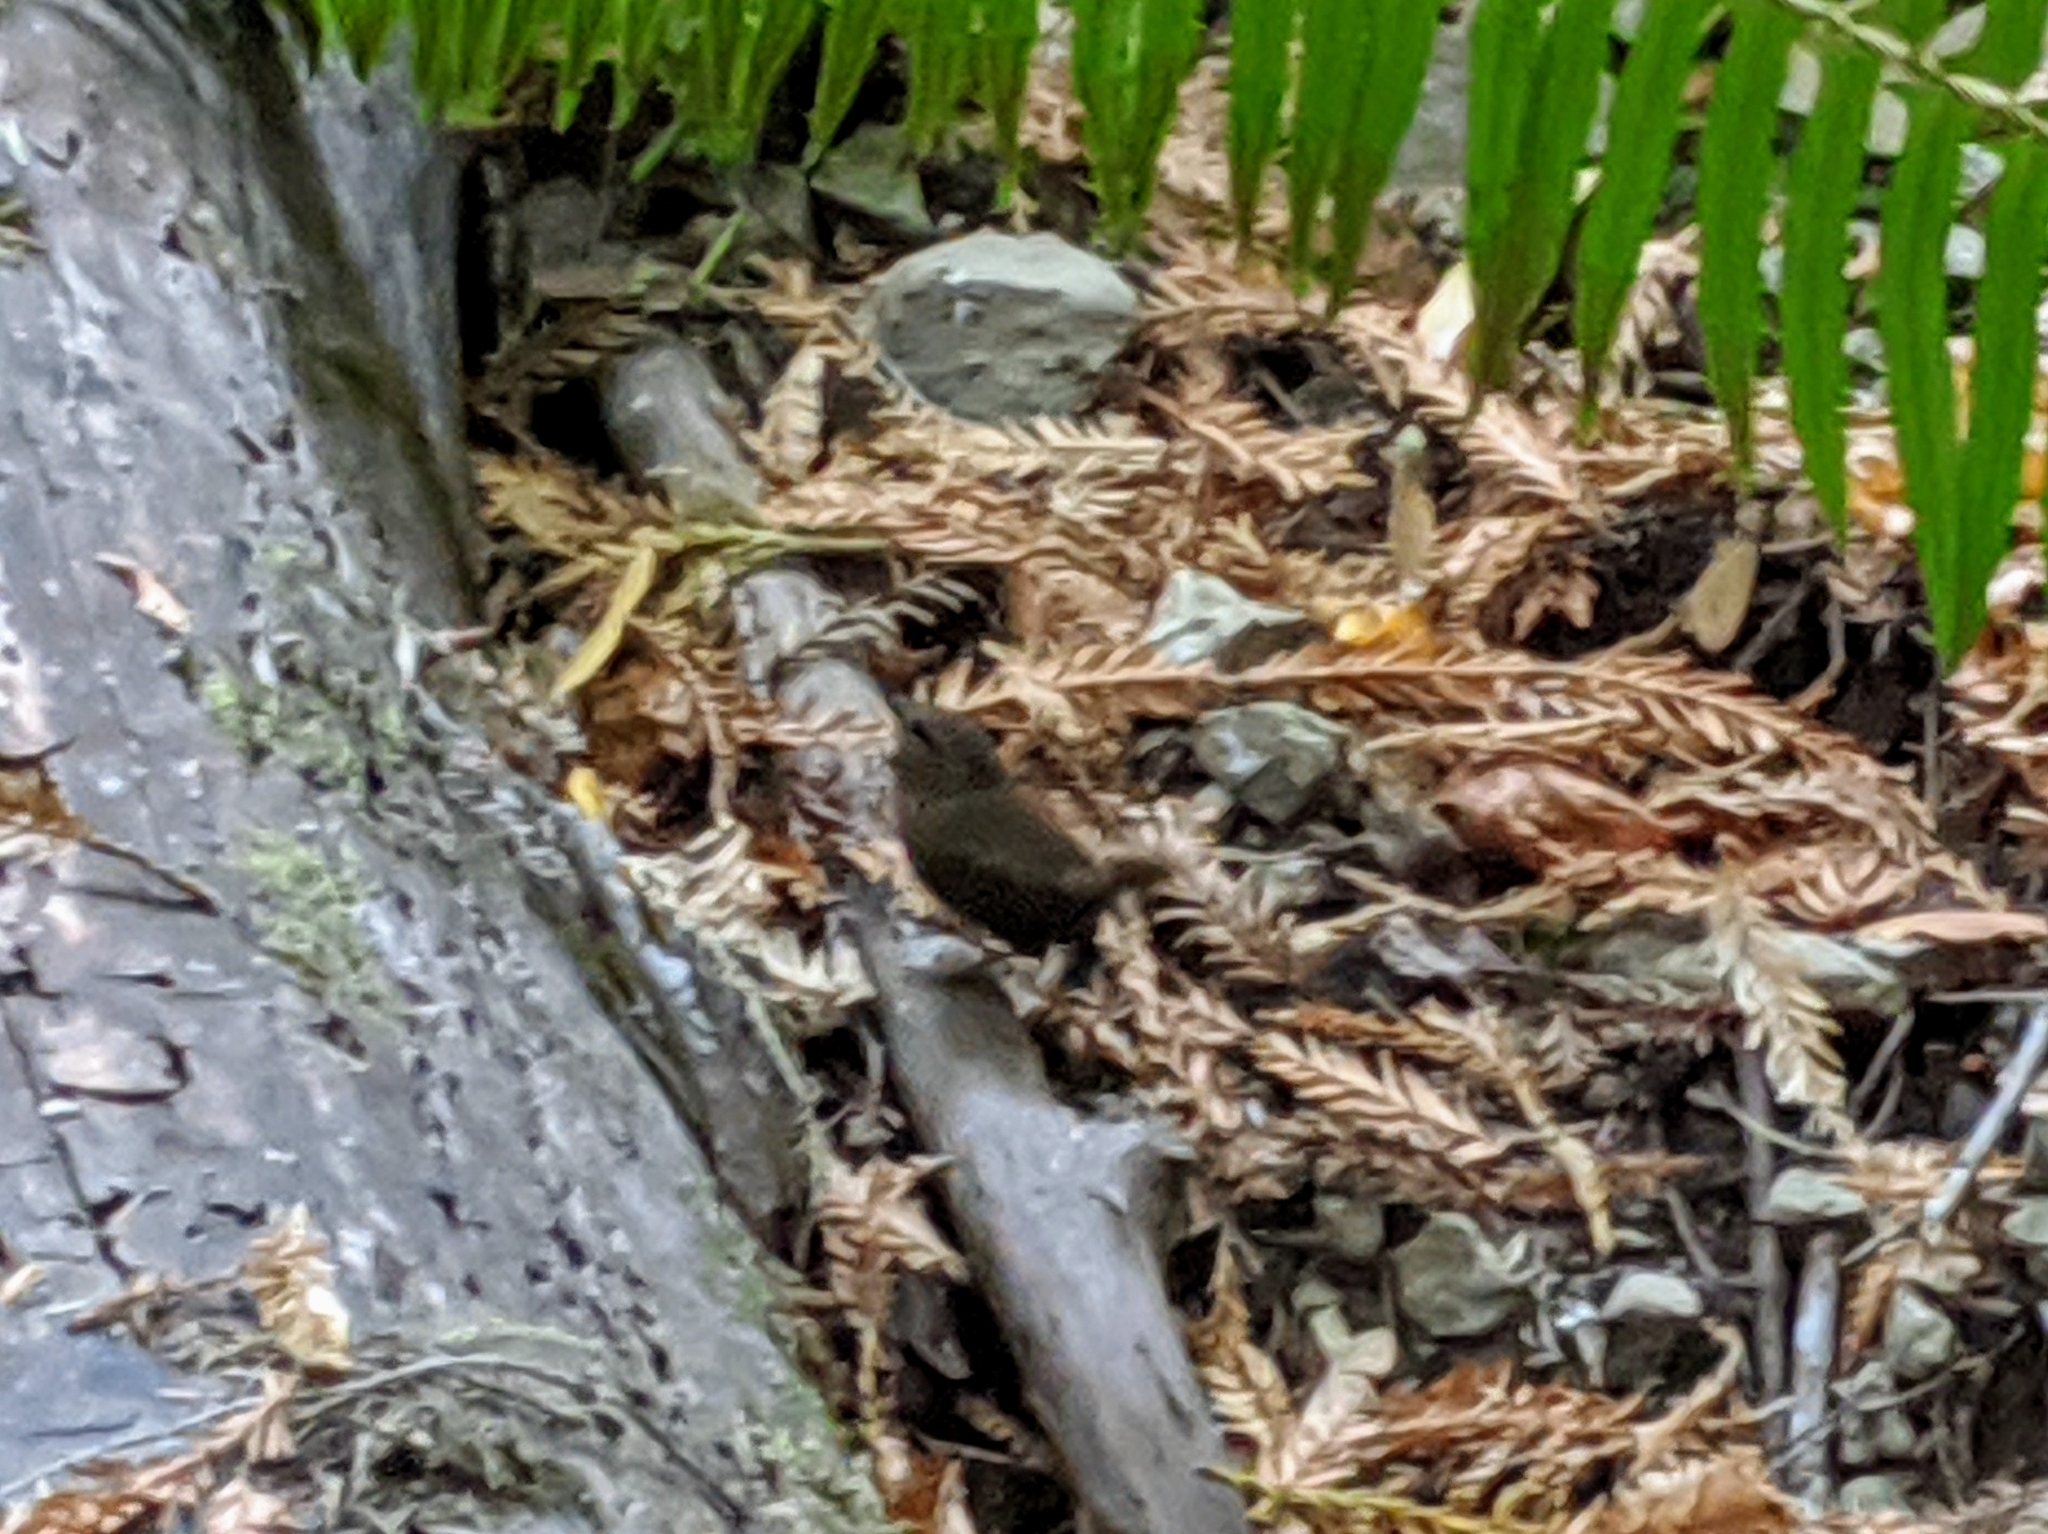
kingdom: Animalia
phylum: Chordata
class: Aves
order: Passeriformes
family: Troglodytidae
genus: Troglodytes
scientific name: Troglodytes pacificus
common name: Pacific wren
